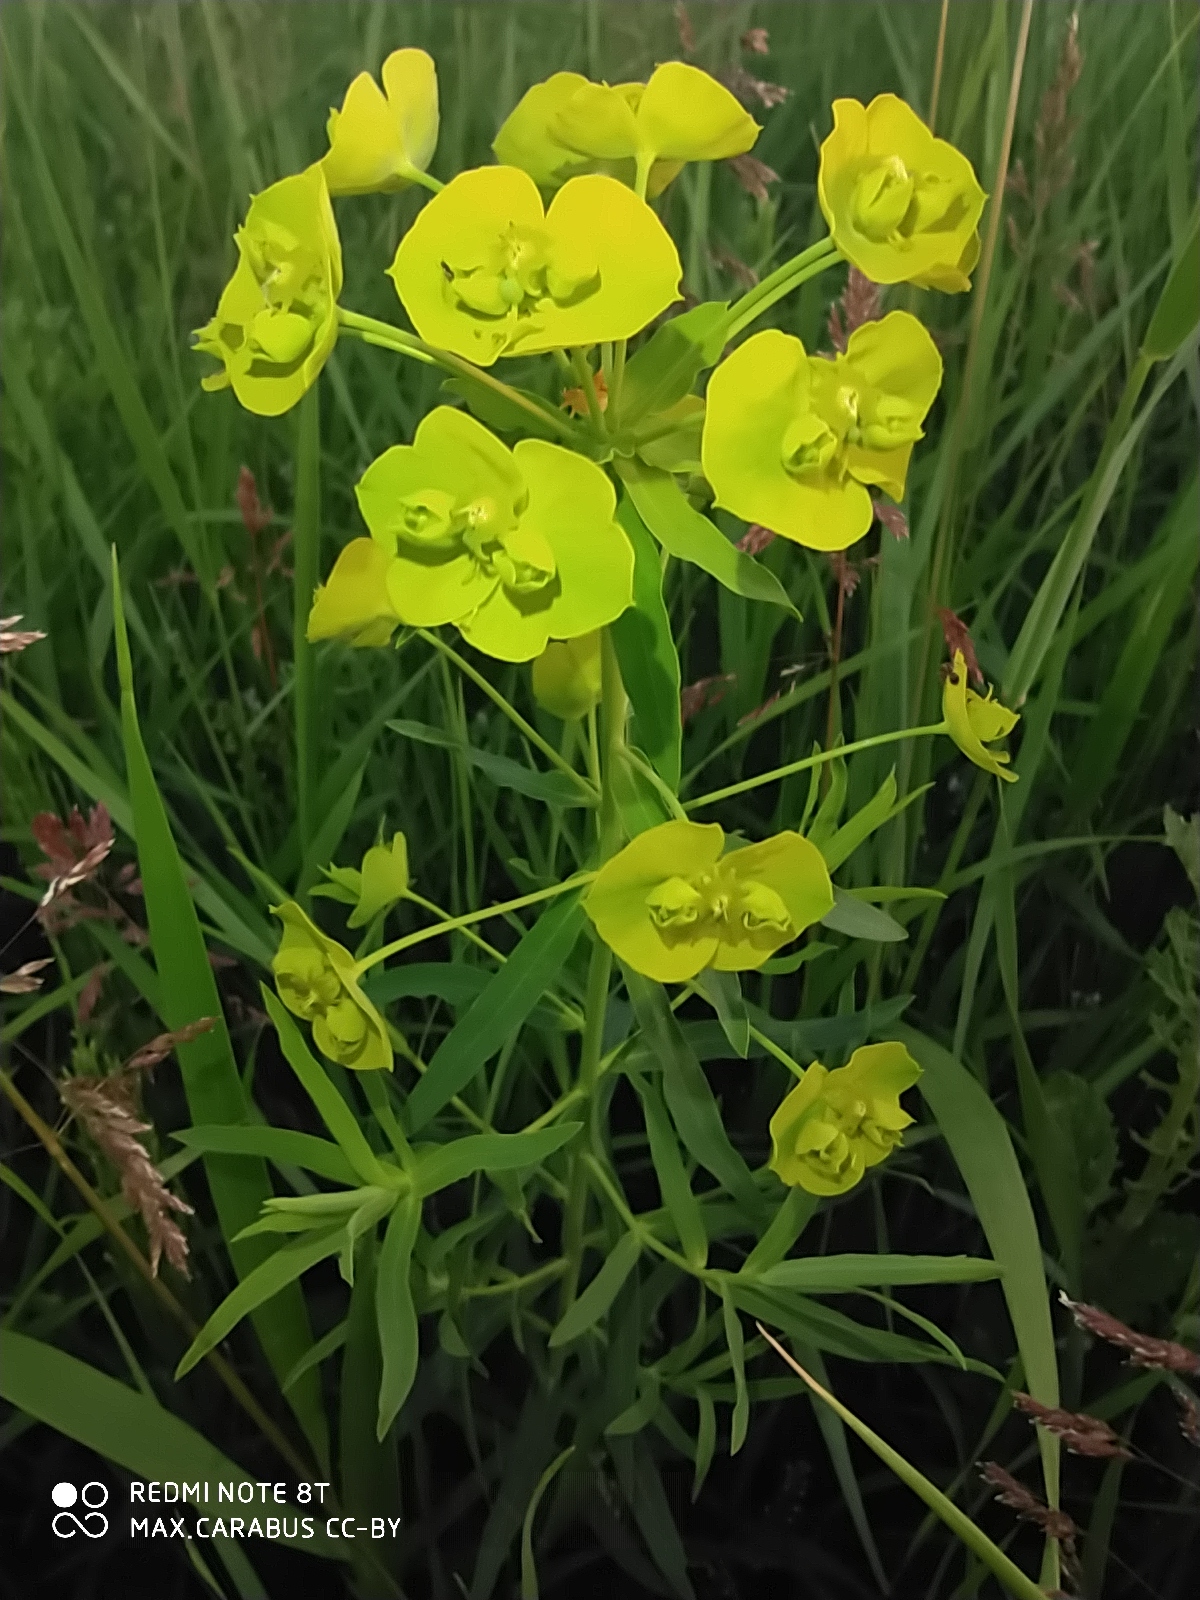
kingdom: Plantae
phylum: Tracheophyta
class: Magnoliopsida
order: Malpighiales
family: Euphorbiaceae
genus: Euphorbia
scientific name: Euphorbia virgata
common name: Leafy spurge
